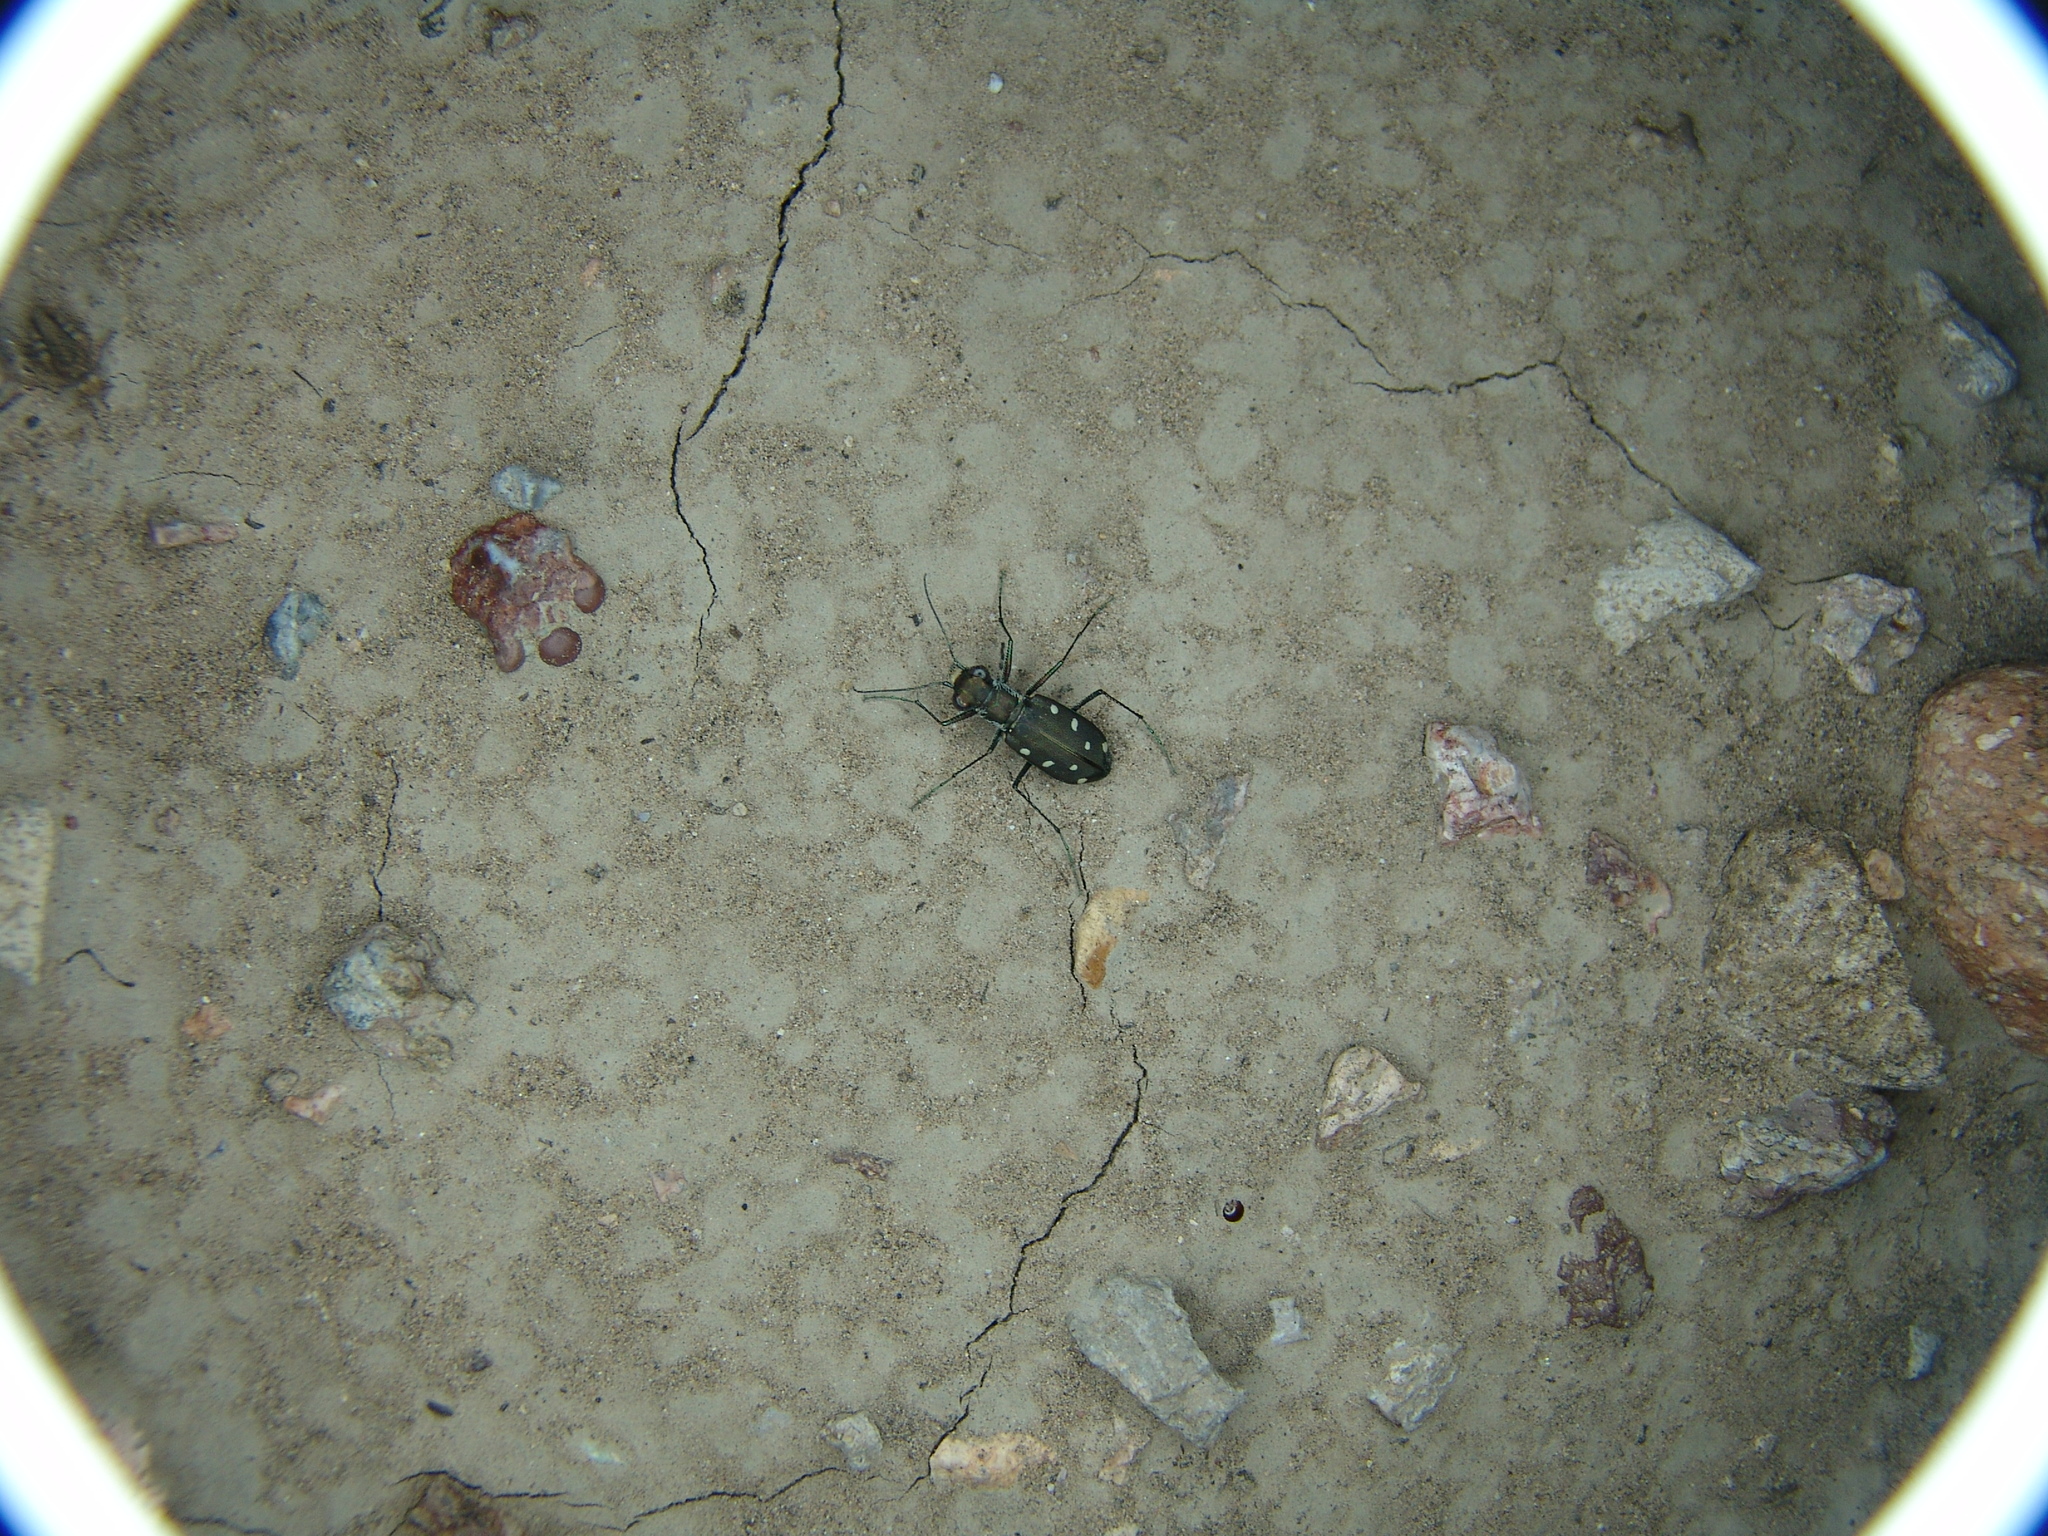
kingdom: Animalia
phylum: Arthropoda
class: Insecta
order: Coleoptera
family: Carabidae
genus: Cicindela
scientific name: Cicindela ocellata
